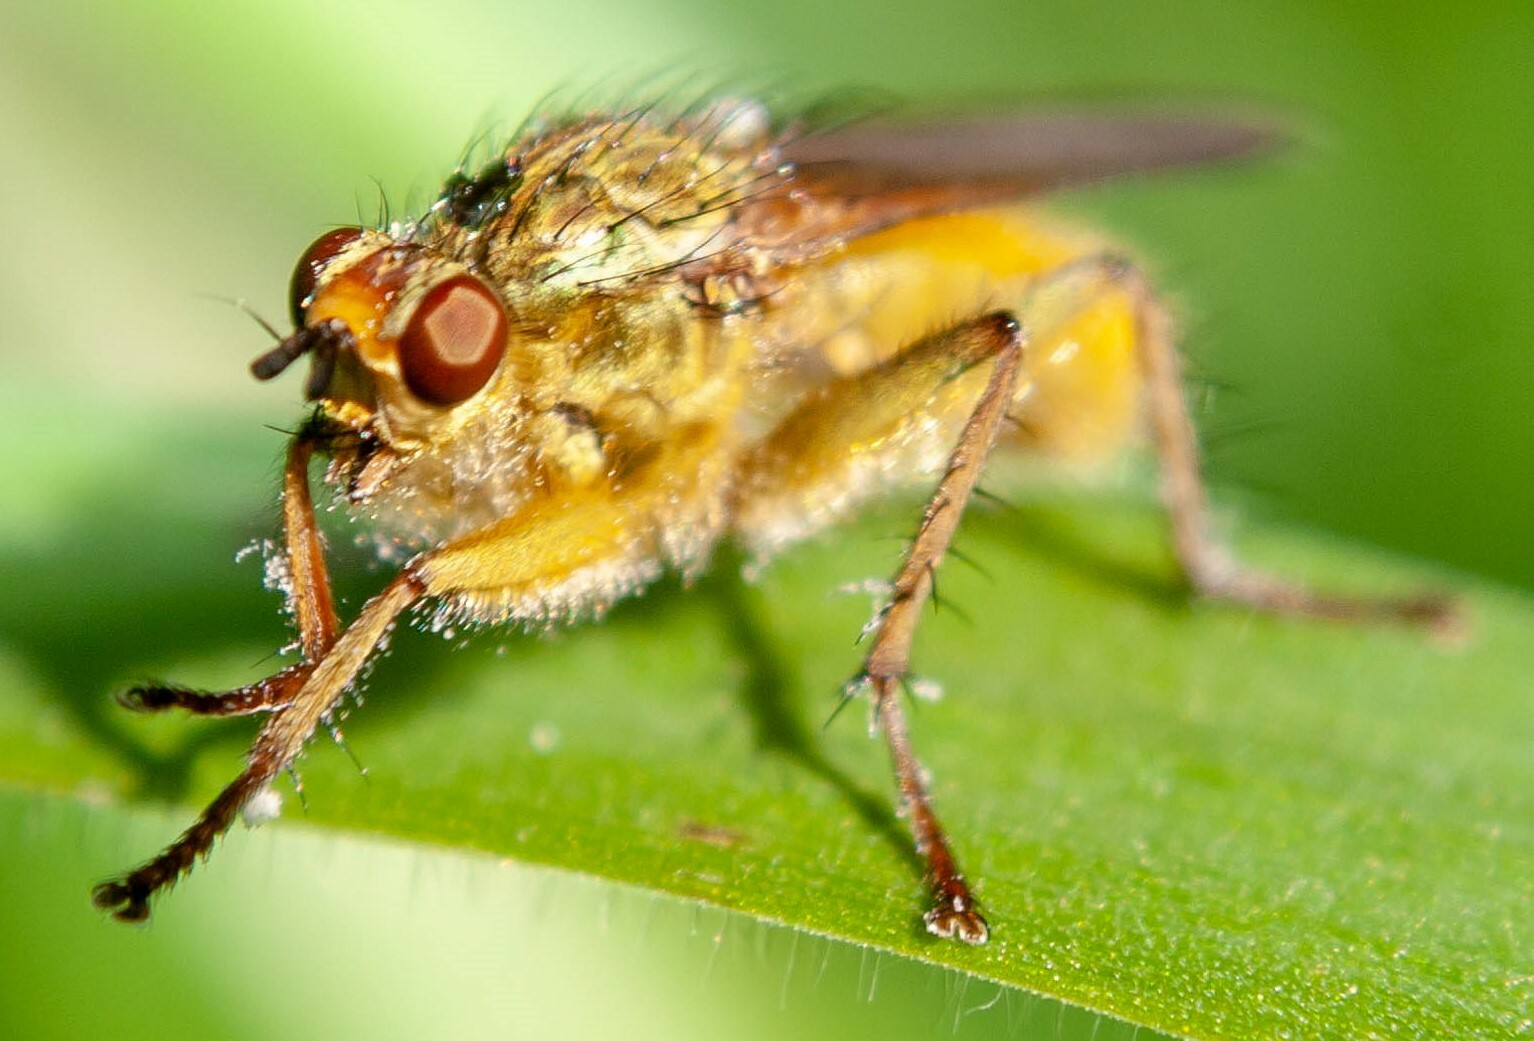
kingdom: Animalia
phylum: Arthropoda
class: Insecta
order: Diptera
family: Scathophagidae
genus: Scathophaga
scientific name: Scathophaga stercoraria
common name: Yellow dung fly
